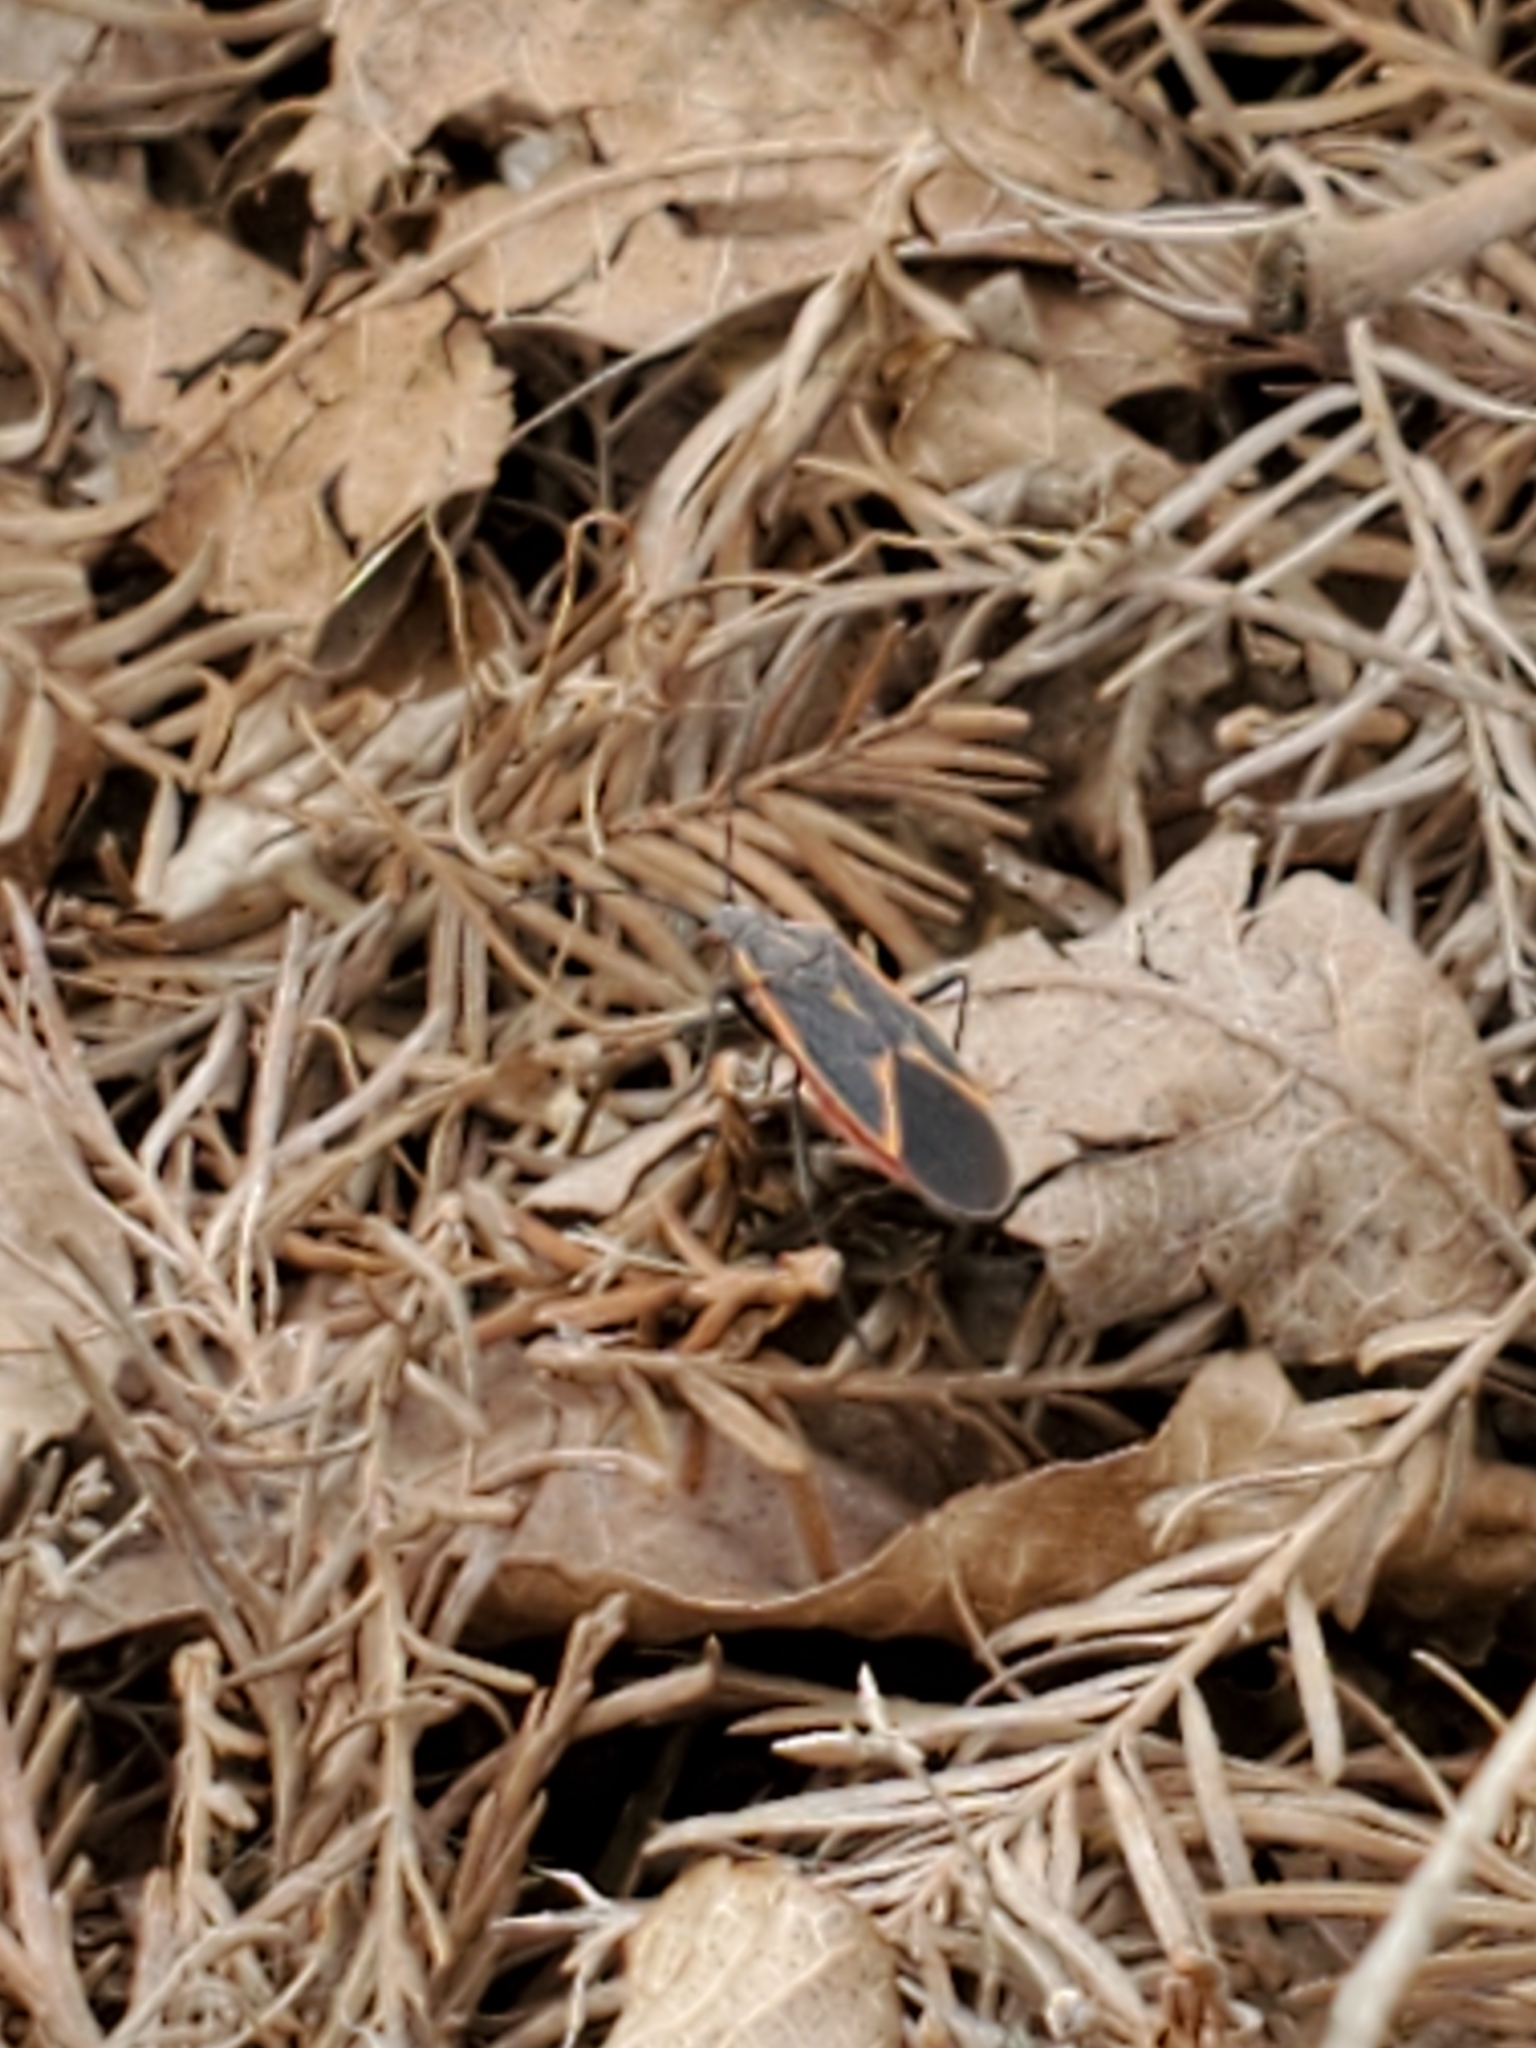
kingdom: Animalia
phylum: Arthropoda
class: Insecta
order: Hemiptera
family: Rhopalidae
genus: Boisea
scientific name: Boisea trivittata
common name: Boxelder bug
